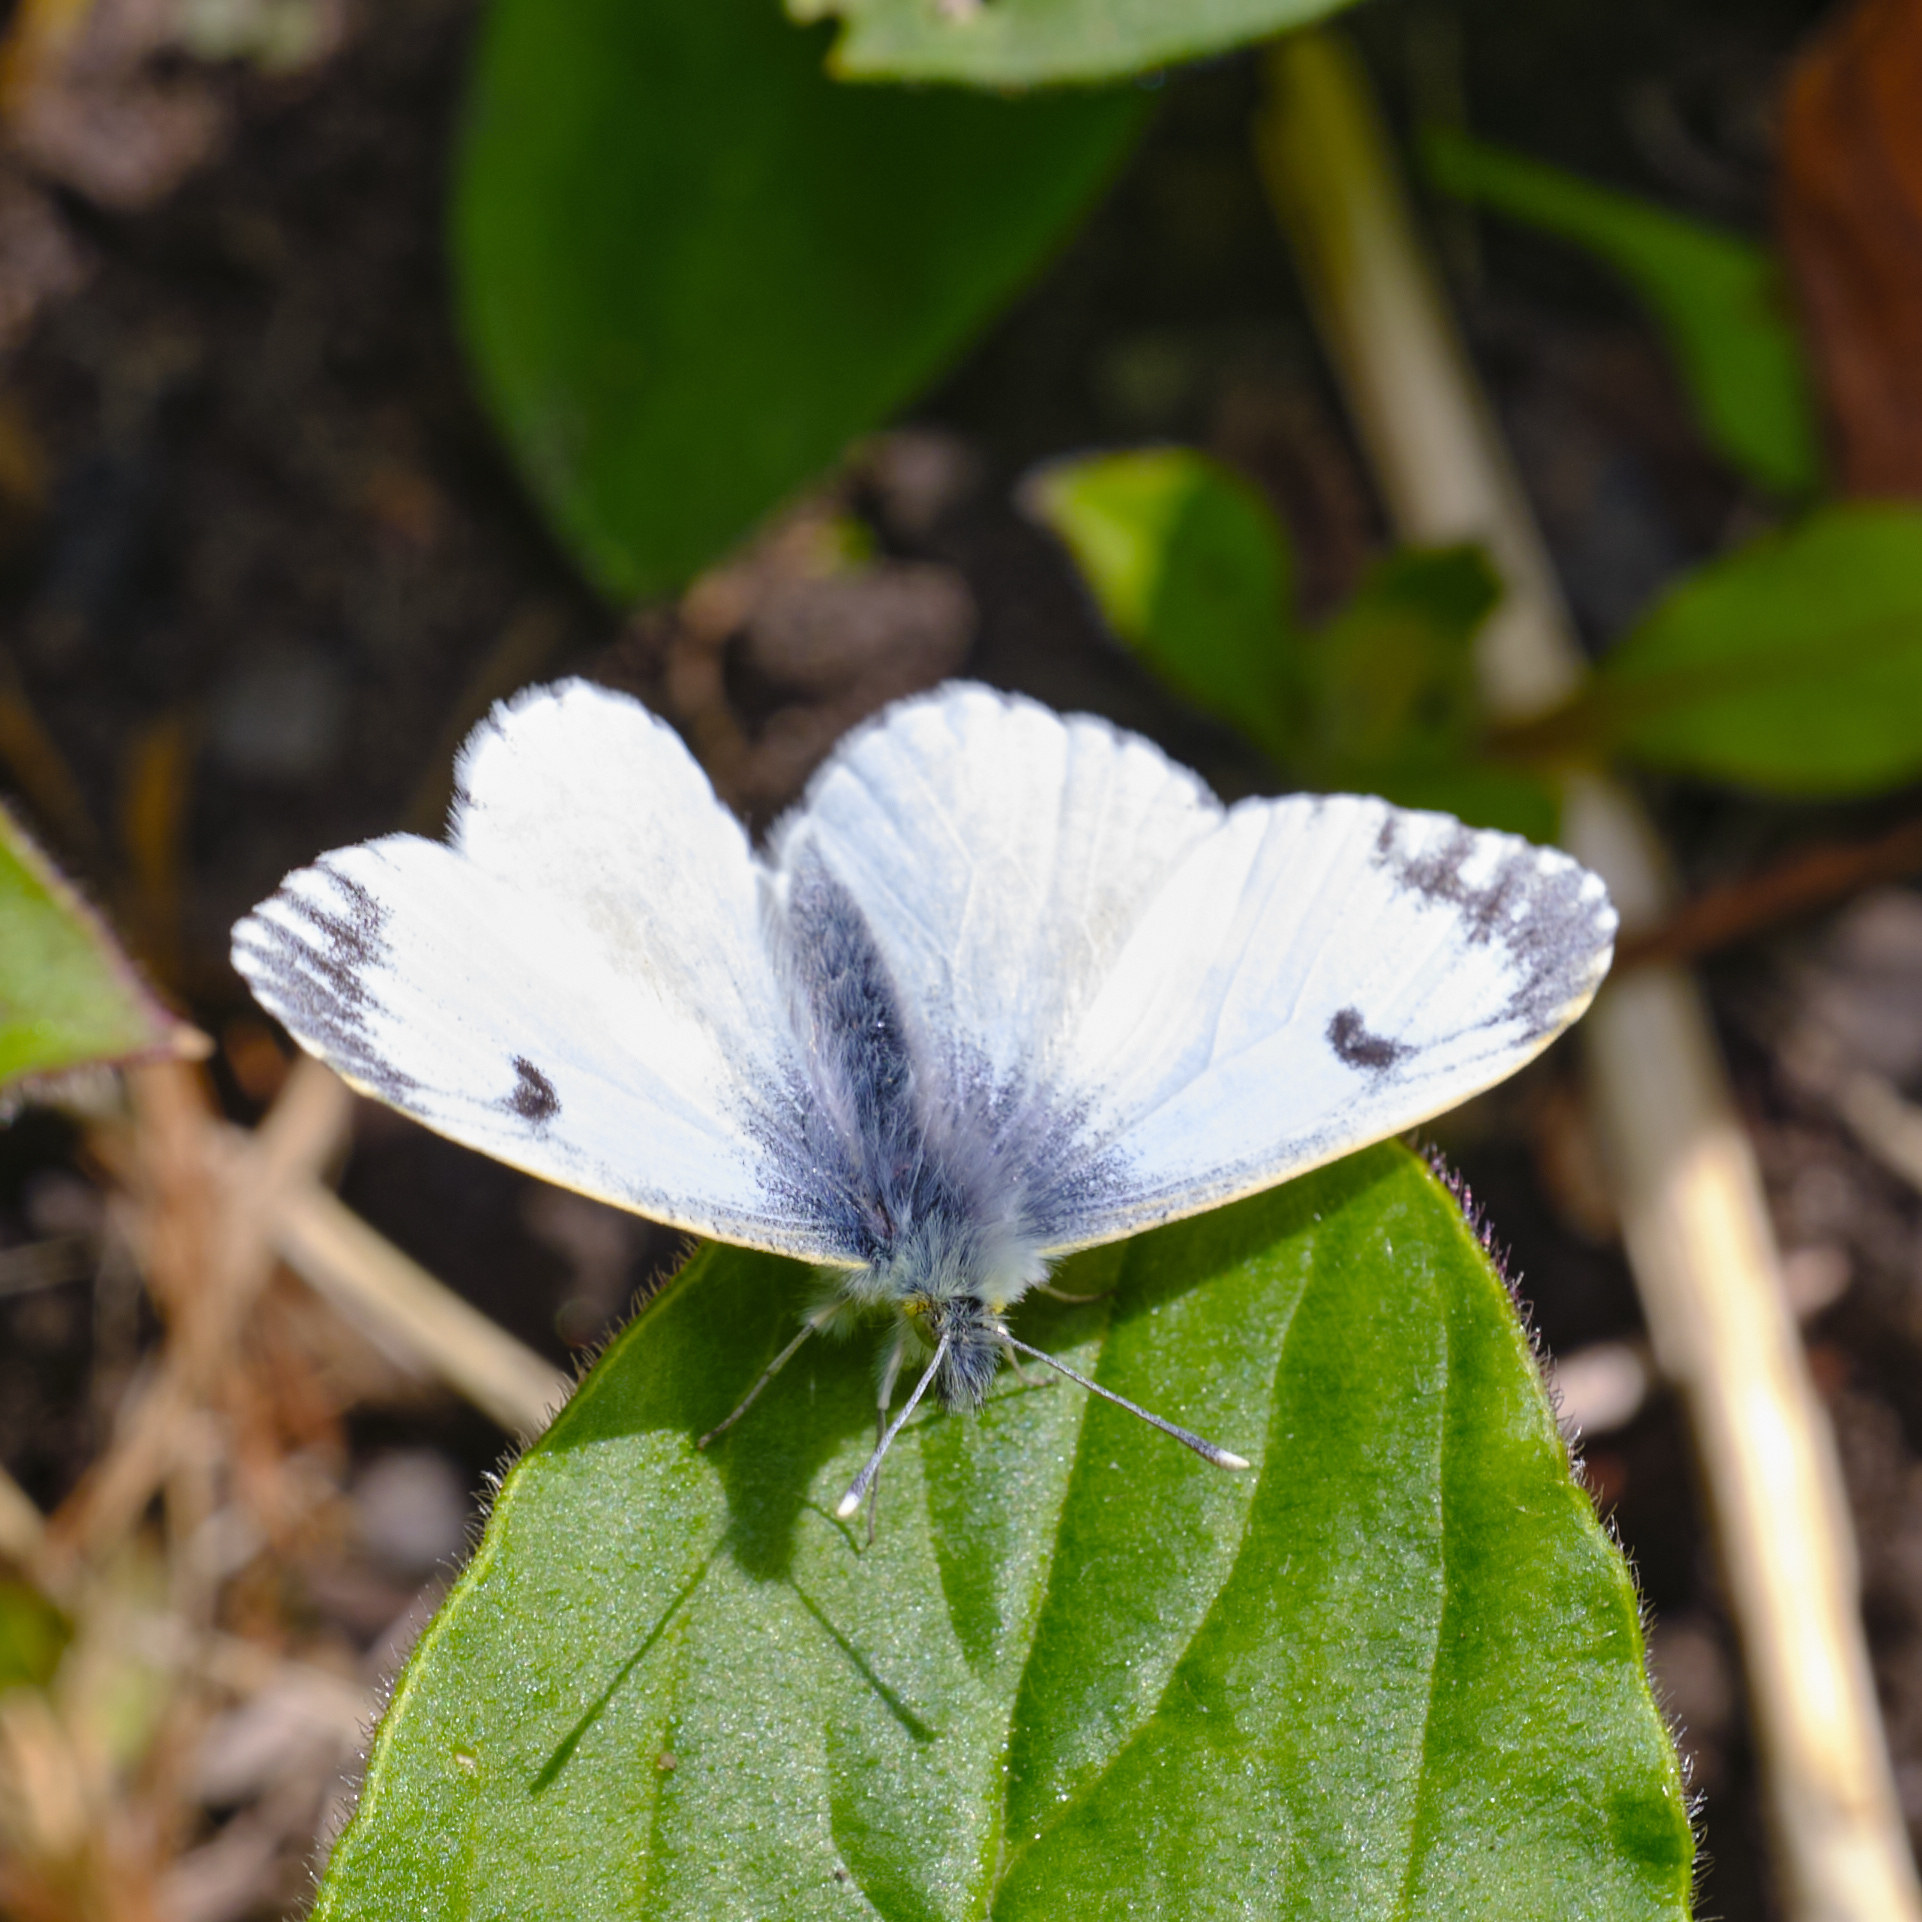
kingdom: Animalia
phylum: Arthropoda
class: Insecta
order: Lepidoptera
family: Pieridae
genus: Anthocharis
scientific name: Anthocharis cardamines
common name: Orange-tip
